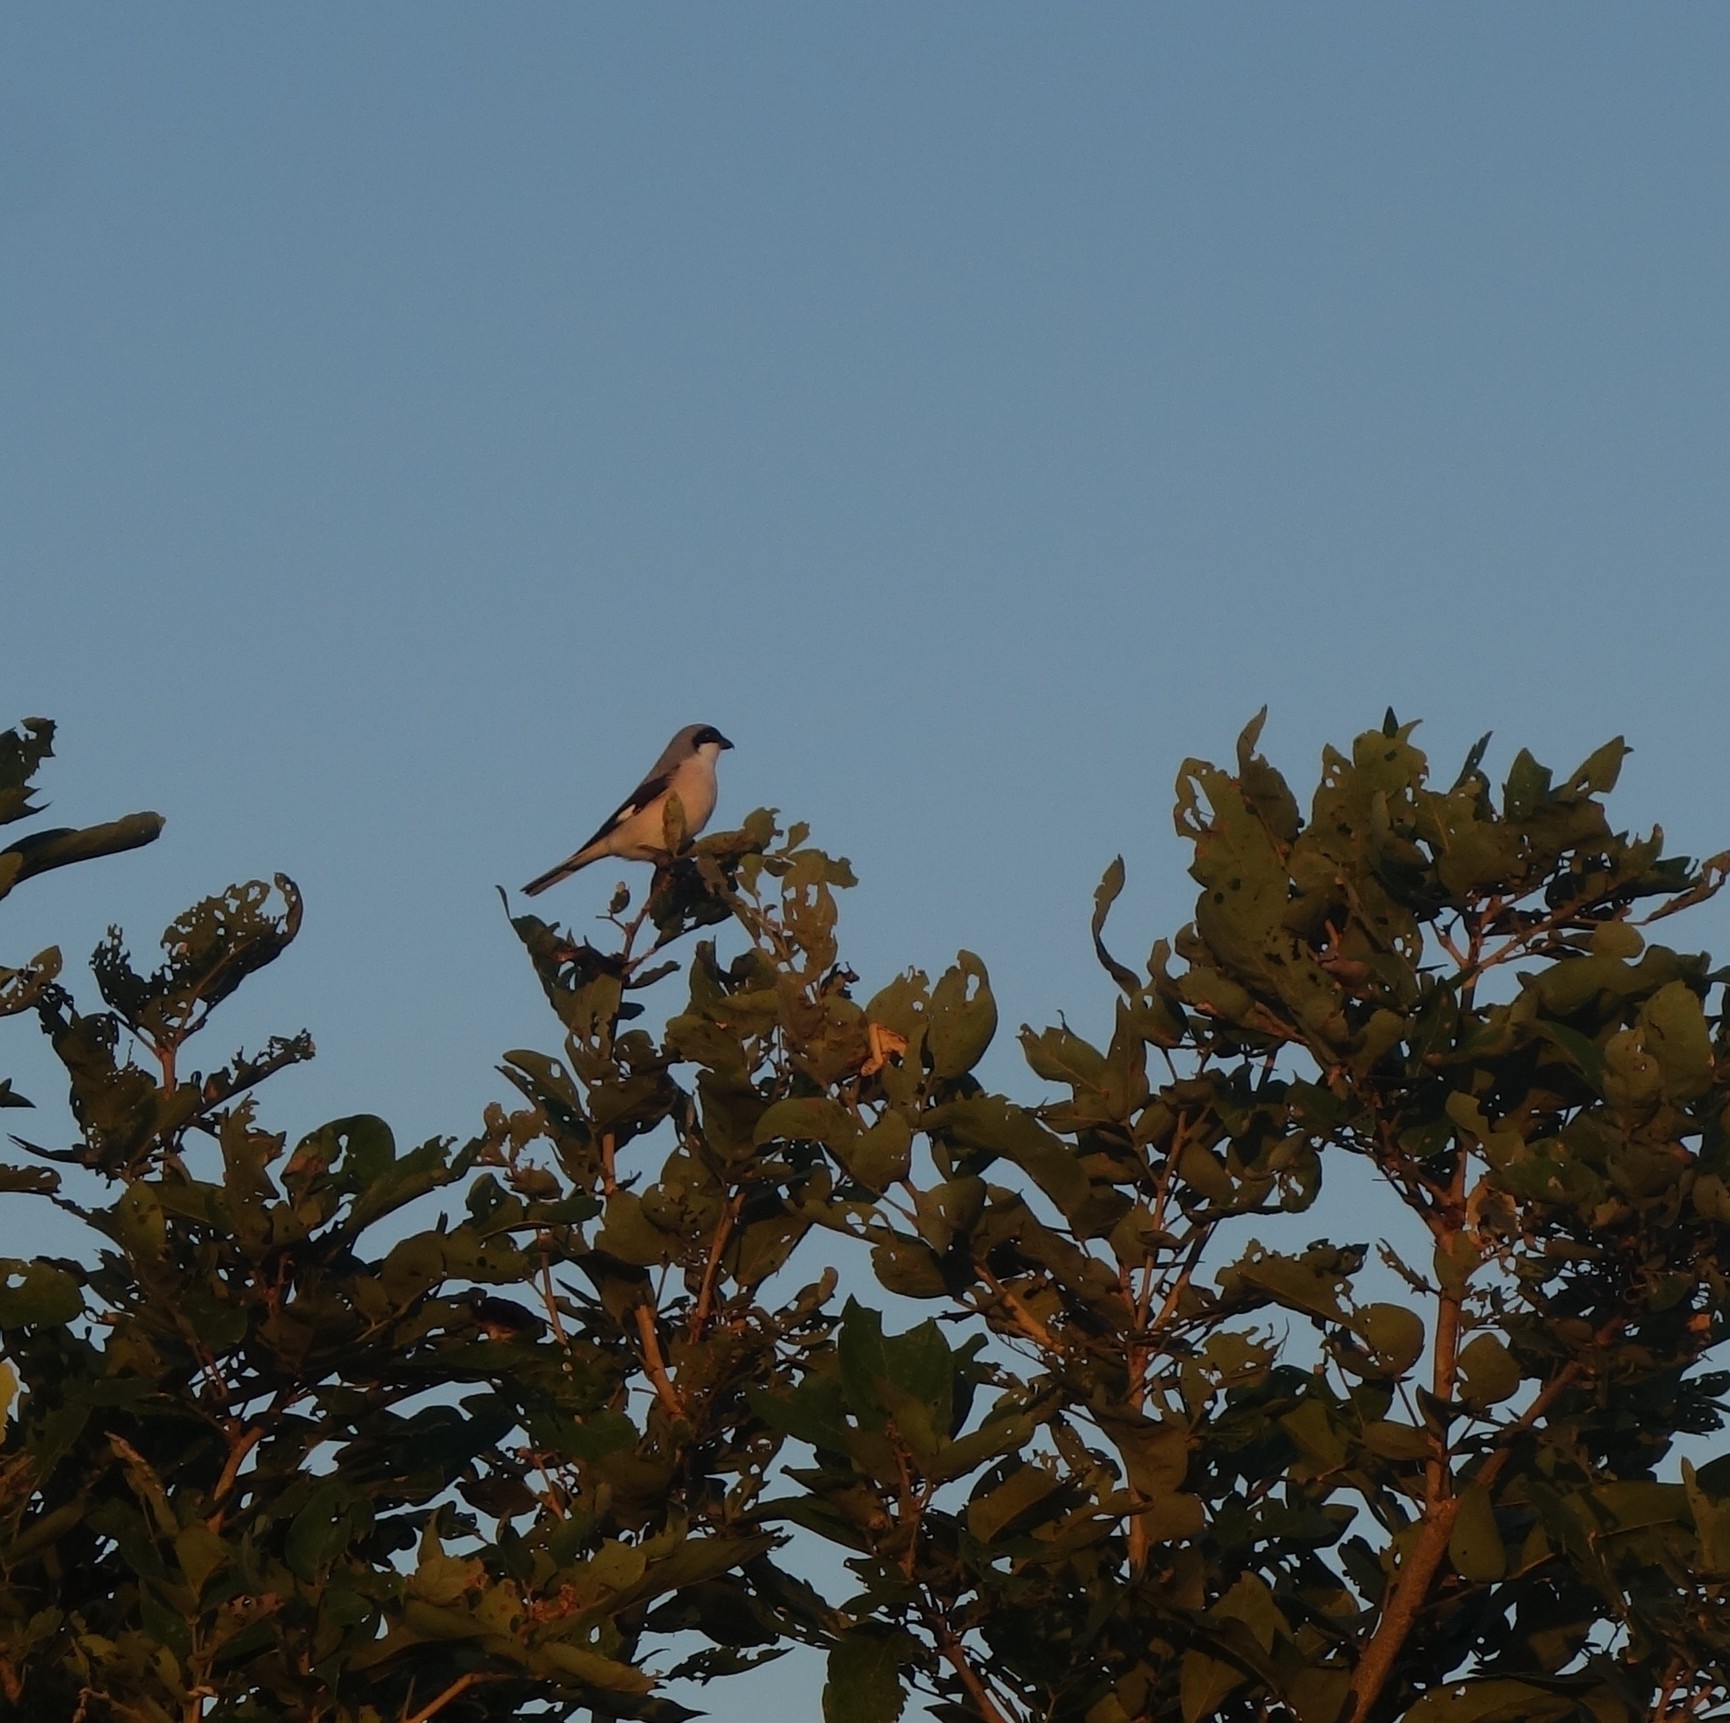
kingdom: Animalia
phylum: Chordata
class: Aves
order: Passeriformes
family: Laniidae
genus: Lanius
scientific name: Lanius minor
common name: Lesser grey shrike
